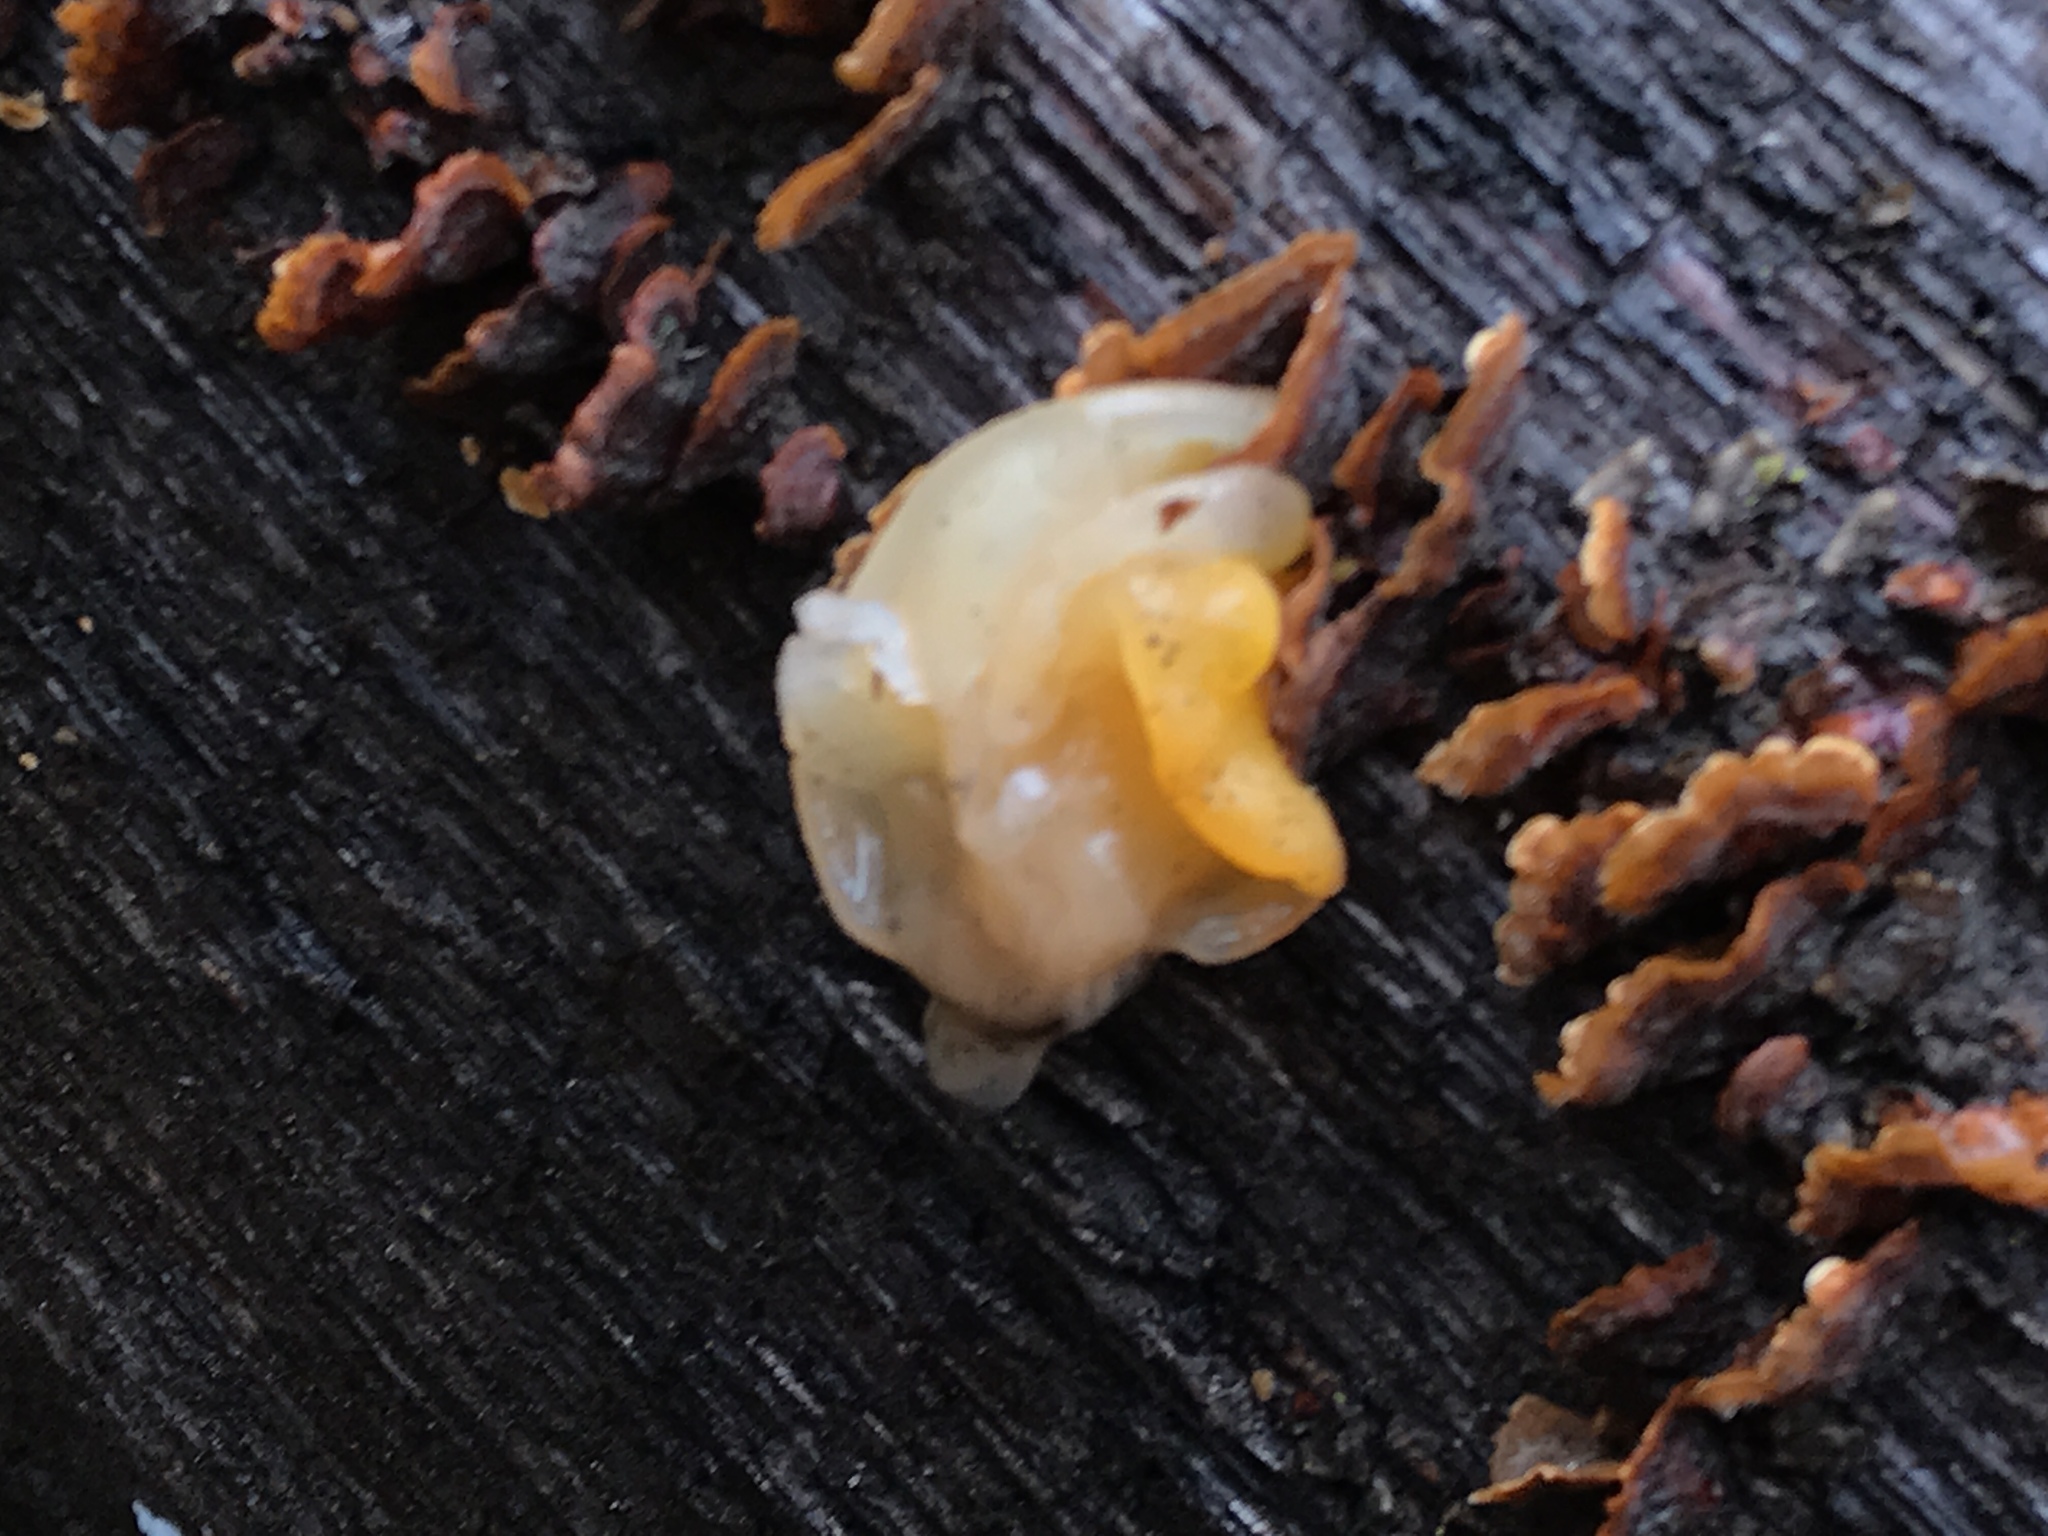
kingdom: Fungi
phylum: Basidiomycota
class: Tremellomycetes
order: Tremellales
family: Naemateliaceae
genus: Naematelia
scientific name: Naematelia aurantia
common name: Golden ear
